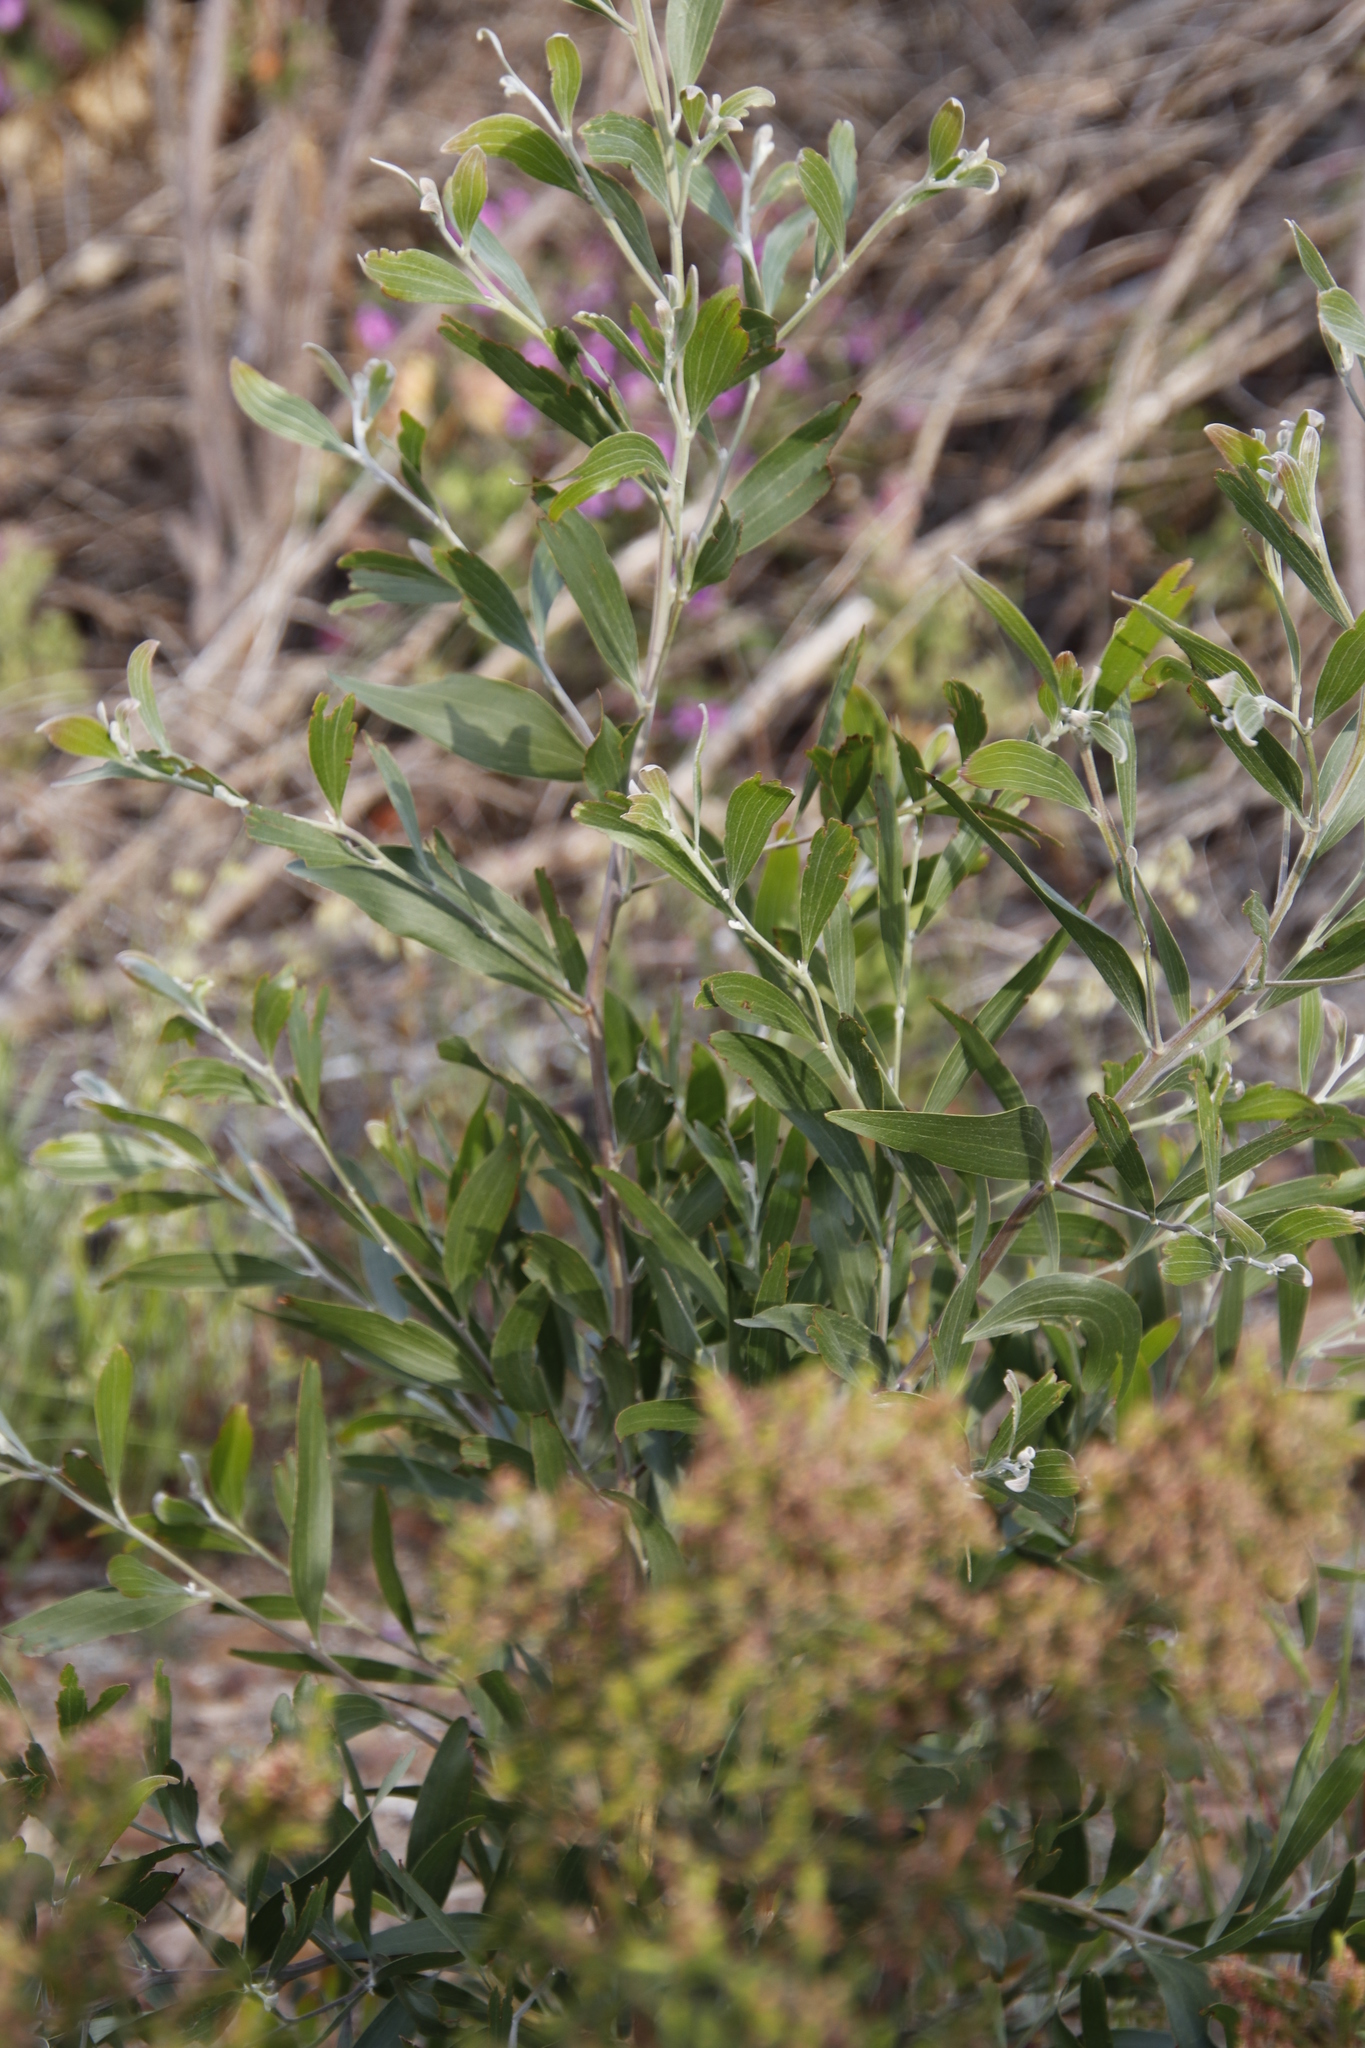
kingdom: Plantae
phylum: Tracheophyta
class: Magnoliopsida
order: Fabales
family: Fabaceae
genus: Acacia
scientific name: Acacia melanoxylon
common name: Blackwood
